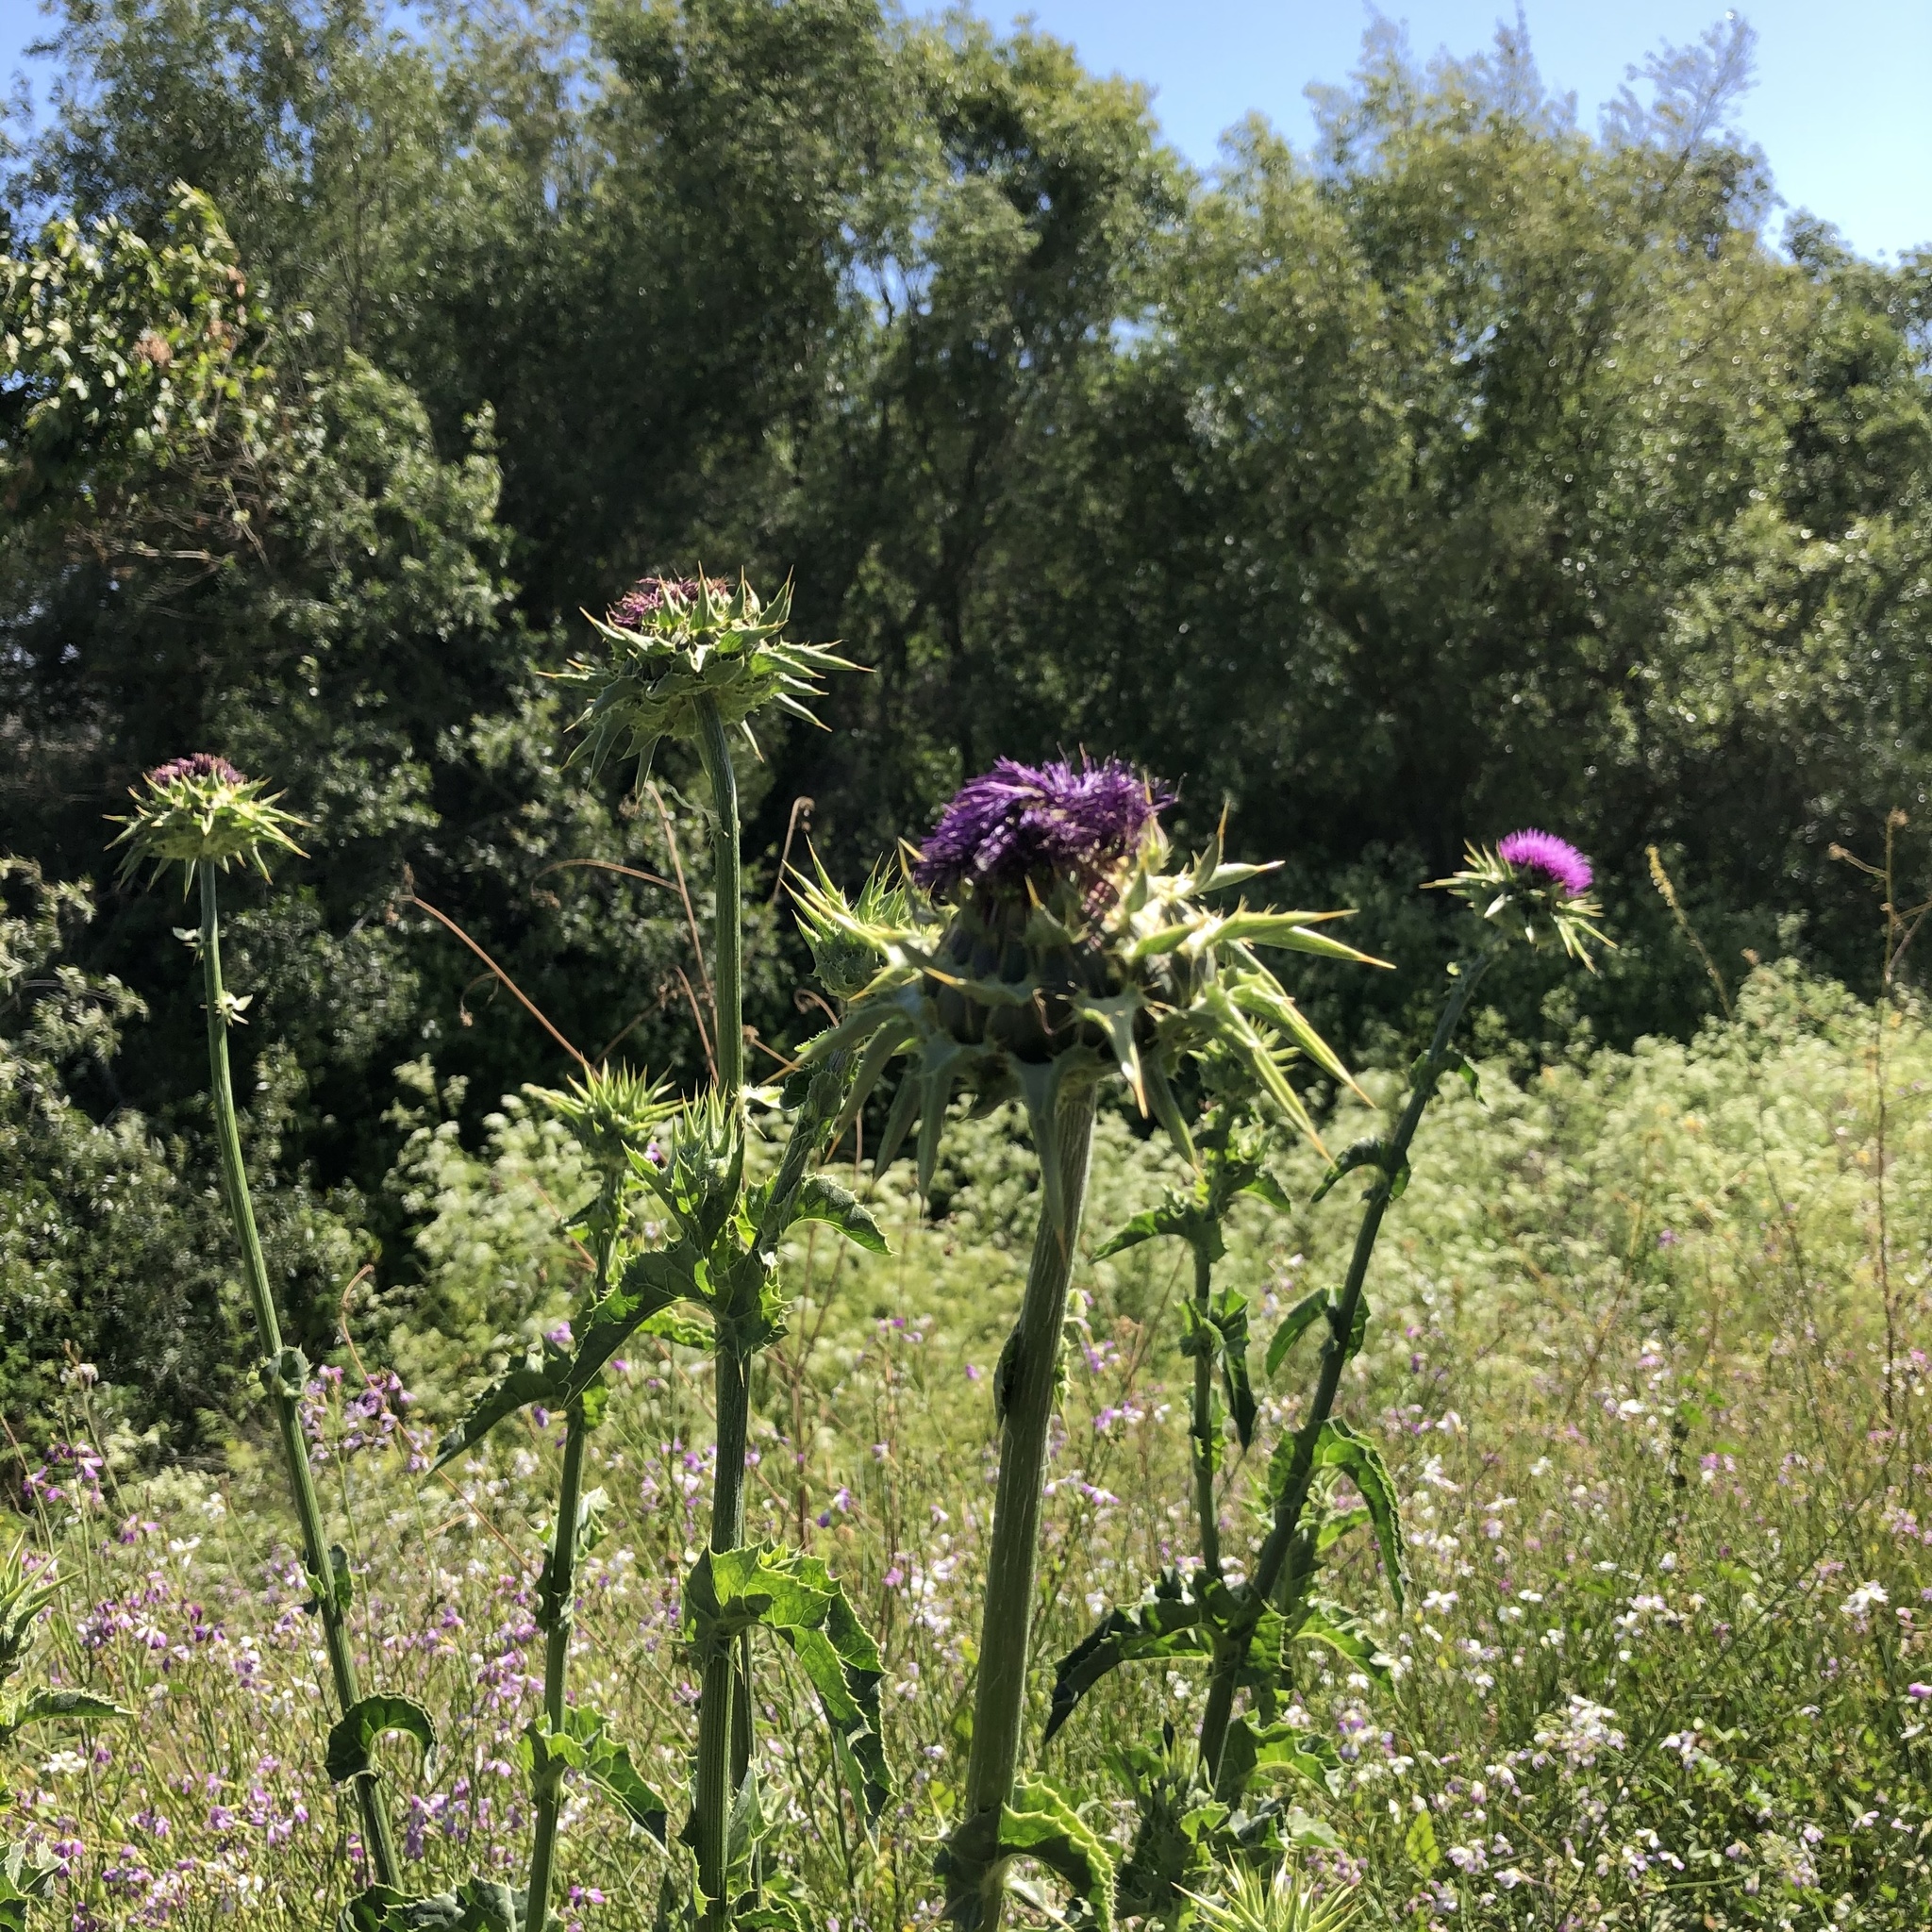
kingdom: Plantae
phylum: Tracheophyta
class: Magnoliopsida
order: Asterales
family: Asteraceae
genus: Silybum
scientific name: Silybum marianum
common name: Milk thistle
